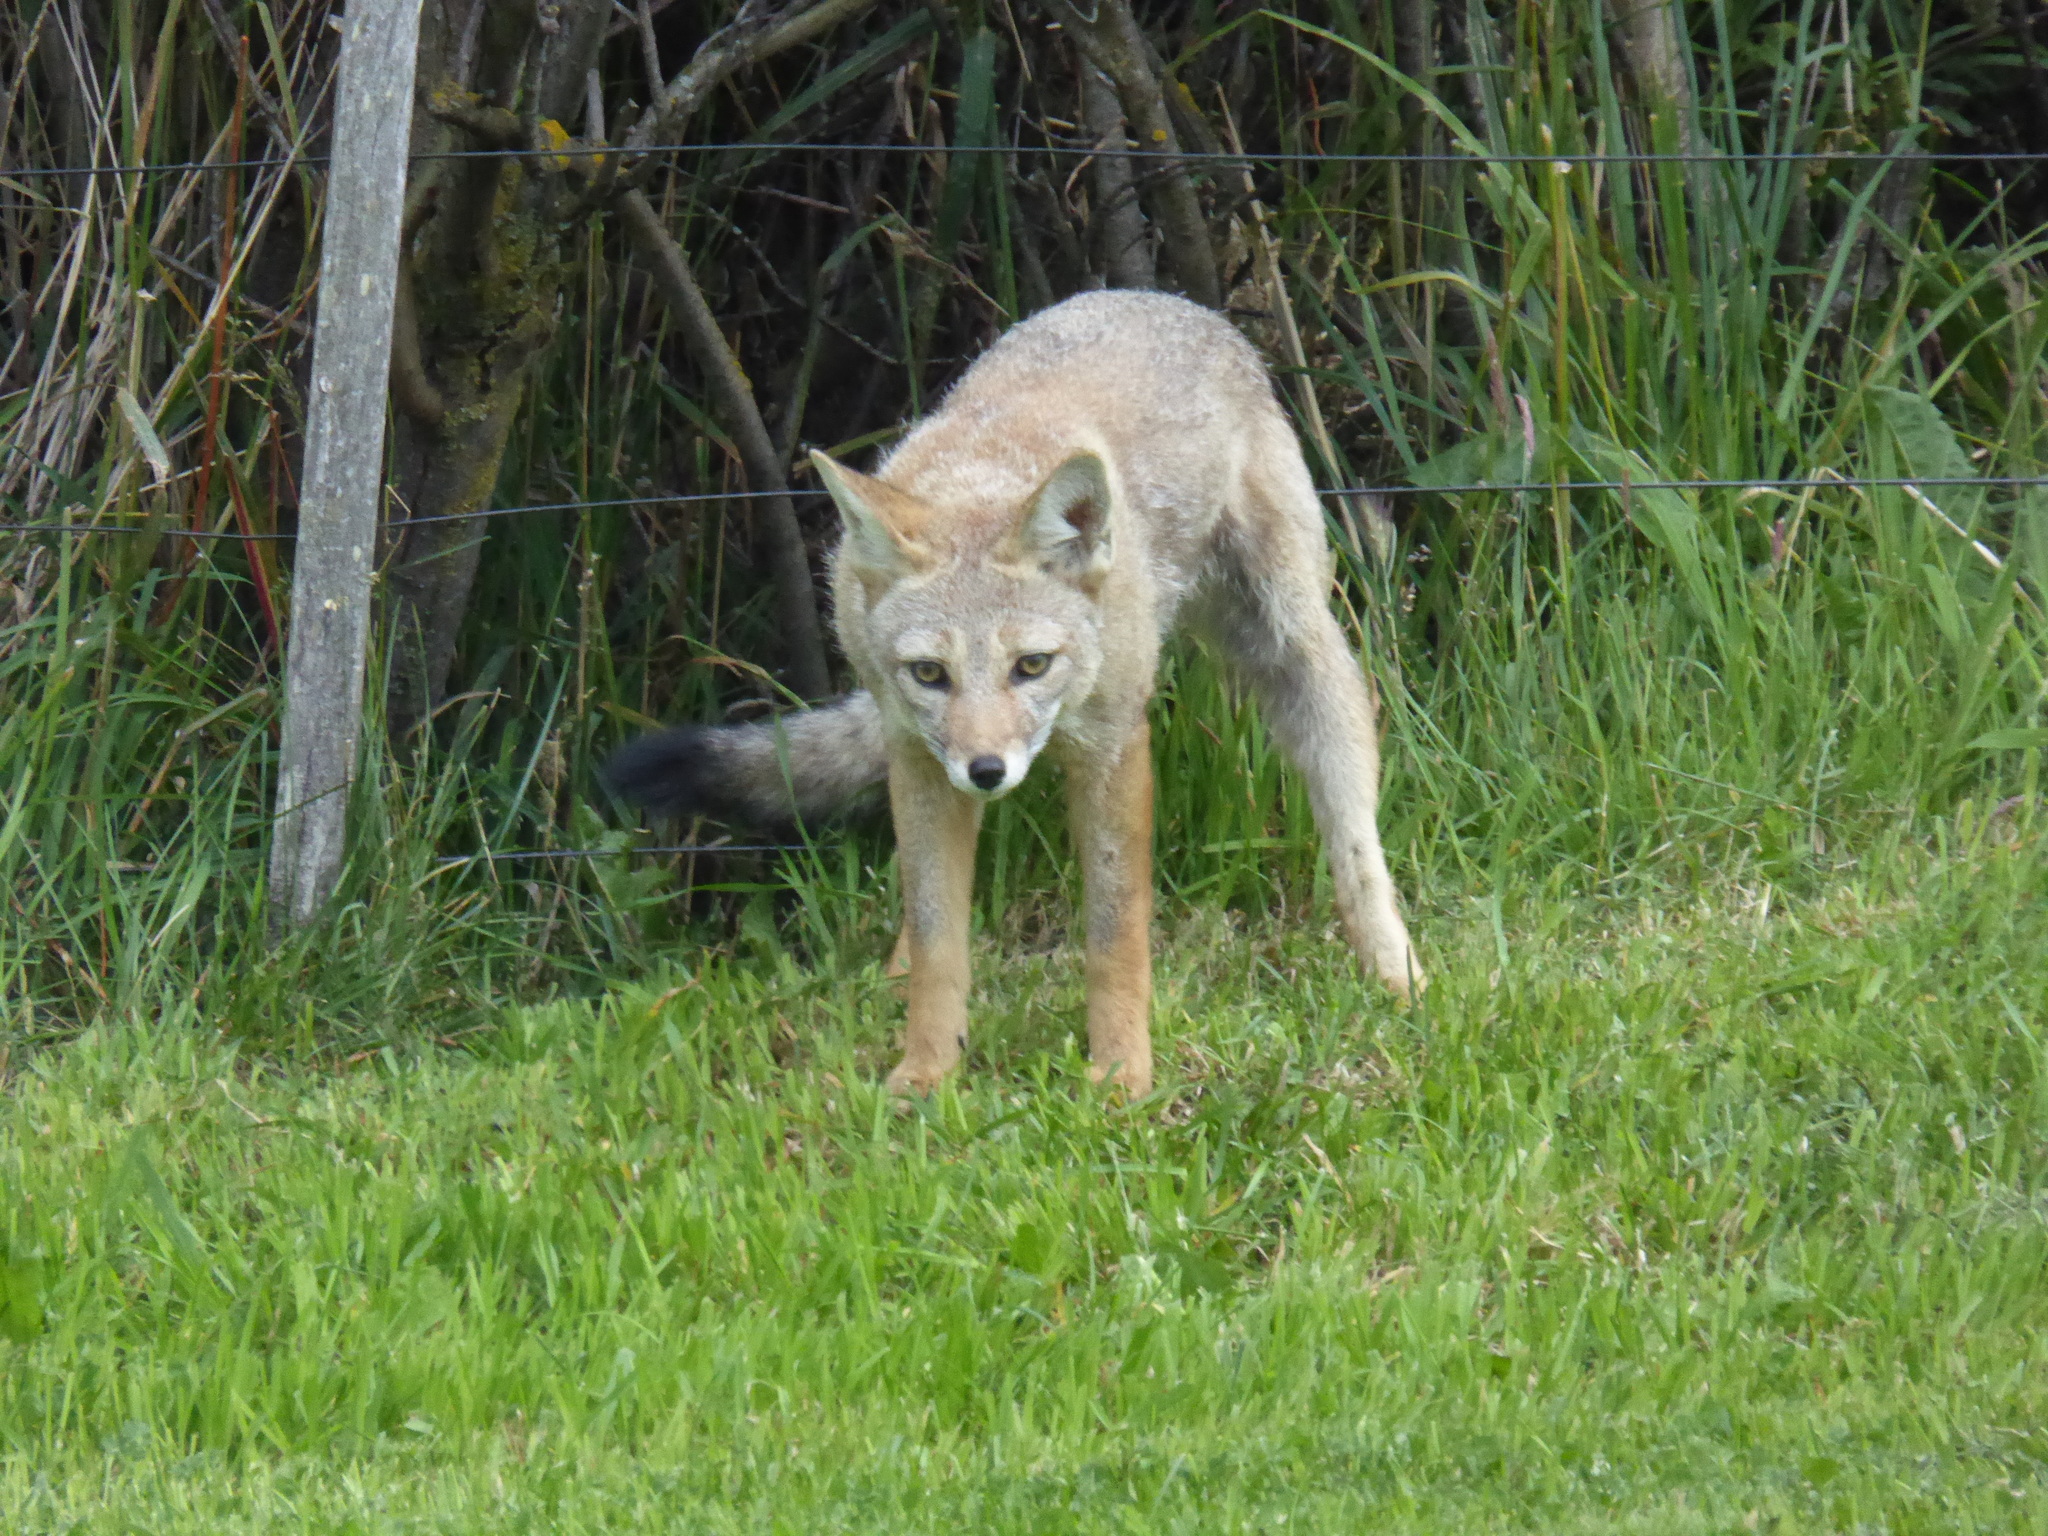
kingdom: Animalia
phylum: Chordata
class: Mammalia
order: Carnivora
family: Canidae
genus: Lycalopex
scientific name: Lycalopex gymnocercus
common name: Pampas fox
